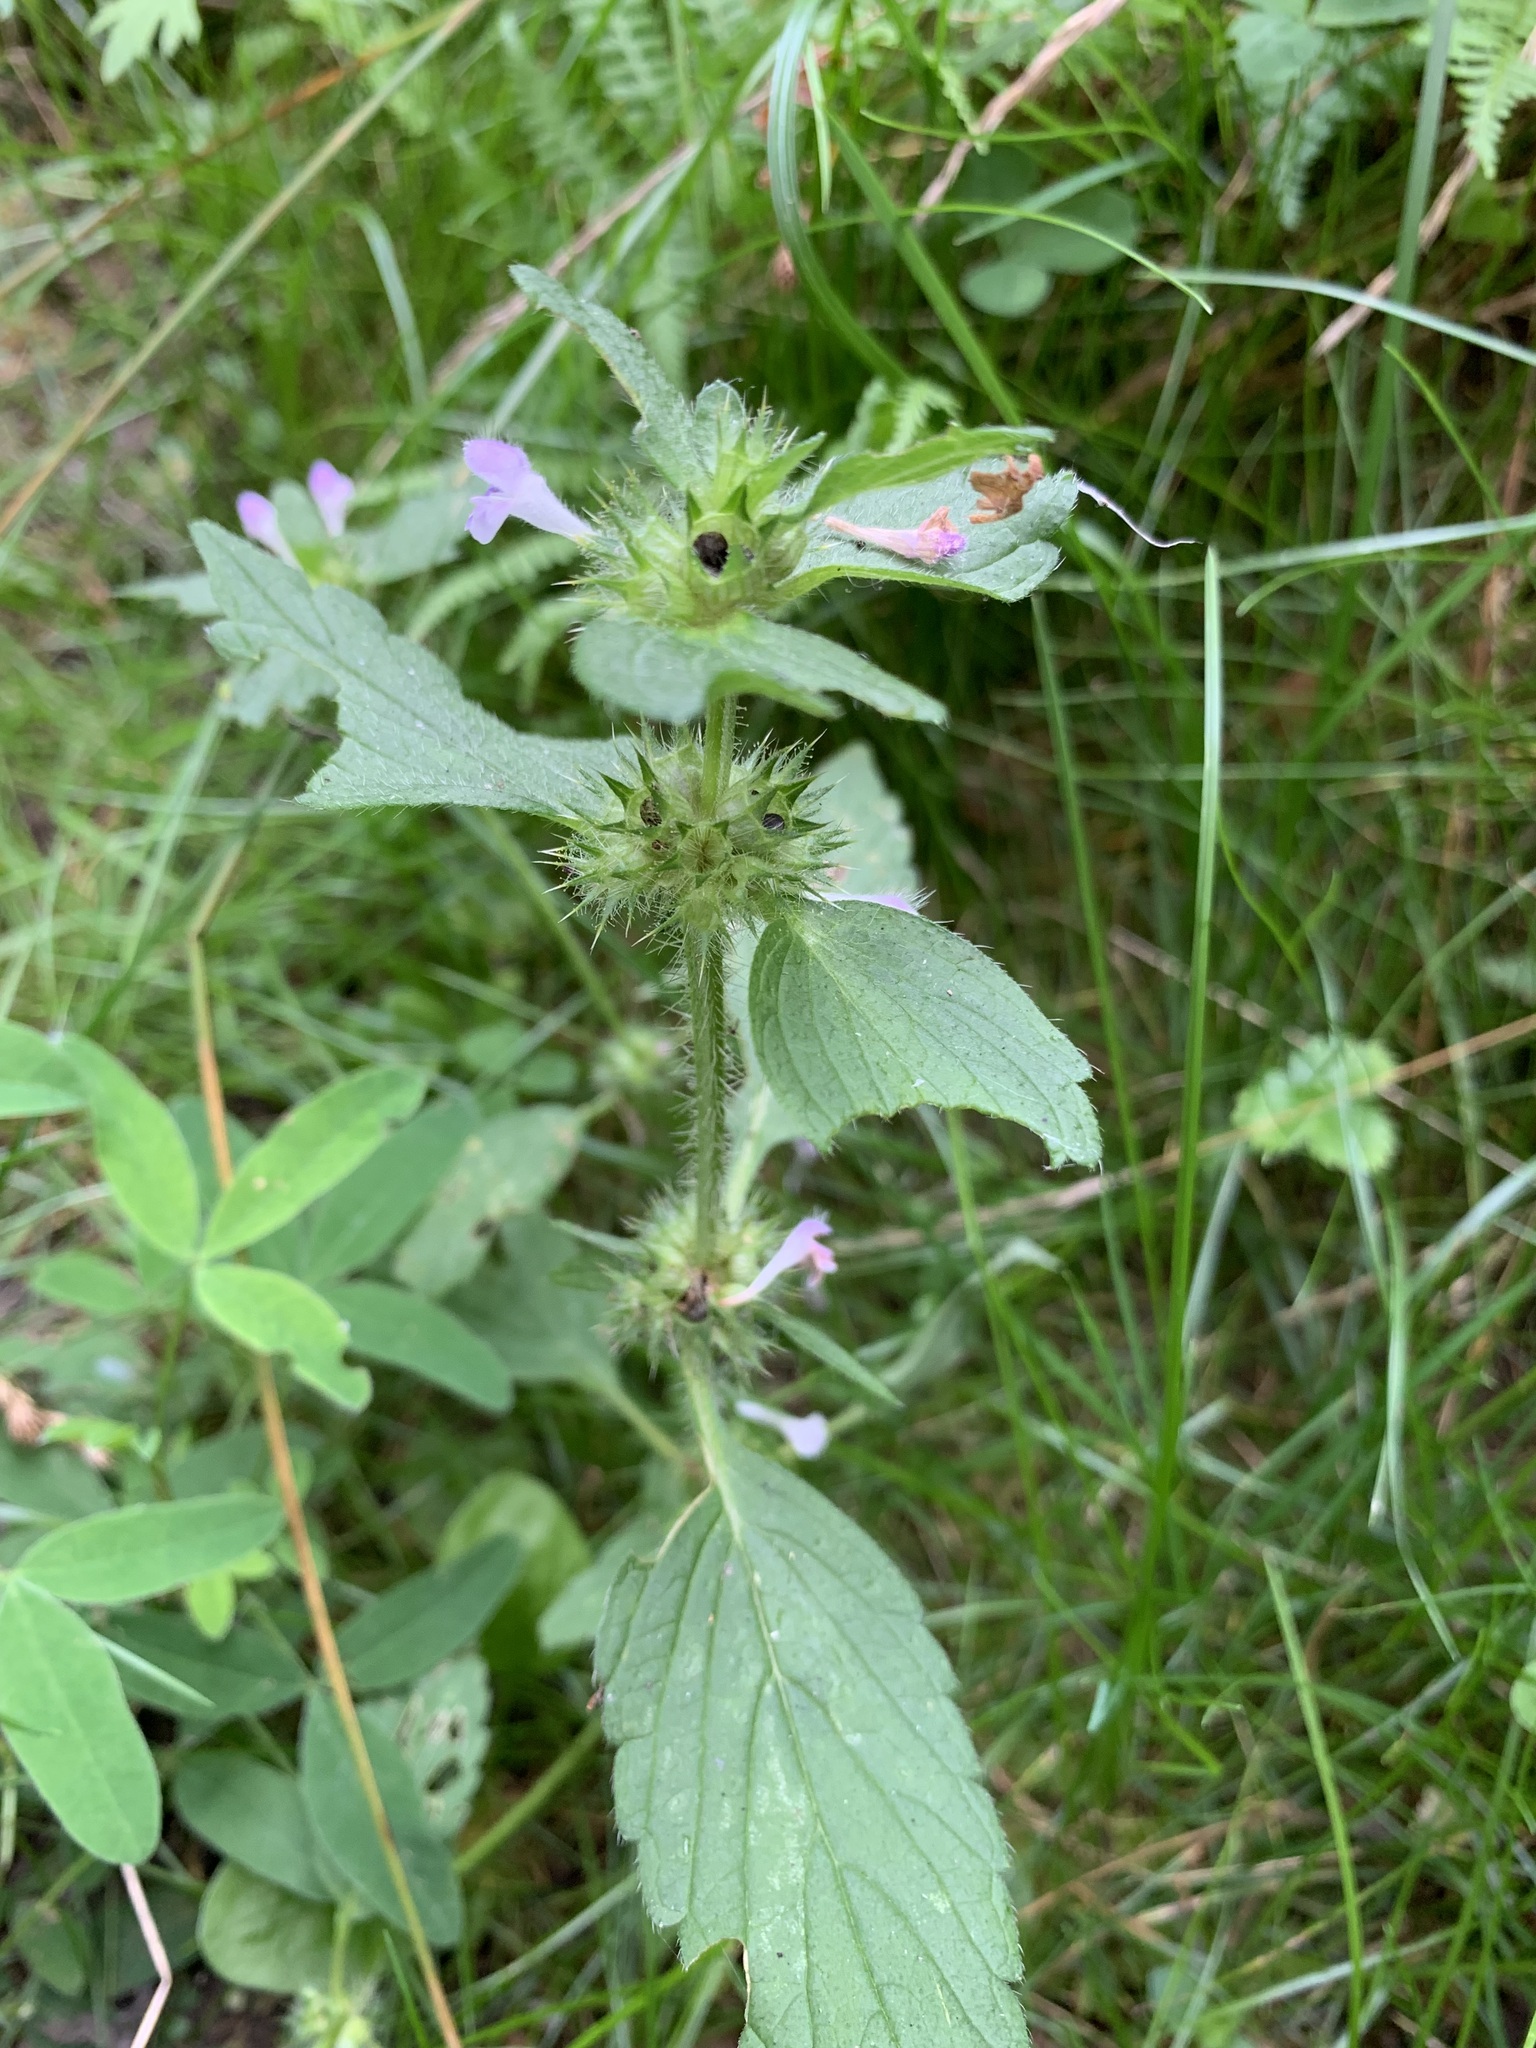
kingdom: Plantae
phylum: Tracheophyta
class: Magnoliopsida
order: Lamiales
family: Lamiaceae
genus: Galeopsis
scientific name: Galeopsis bifida
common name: Bifid hemp-nettle
